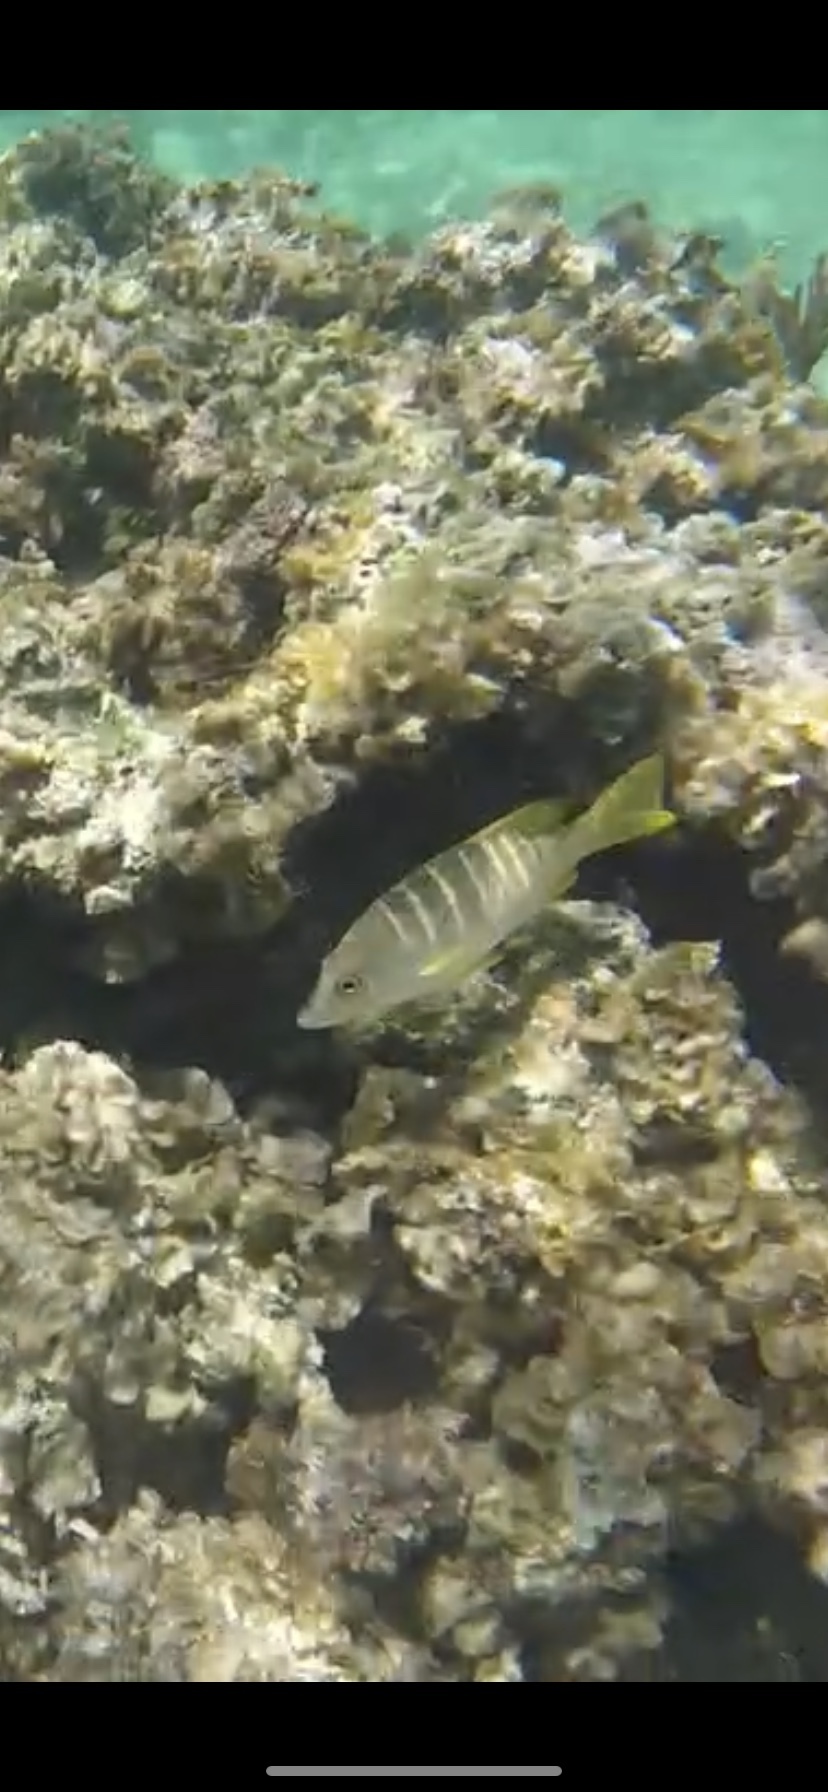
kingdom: Animalia
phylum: Chordata
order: Perciformes
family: Lutjanidae
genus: Lutjanus
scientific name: Lutjanus apodus
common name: Schoolmaster
